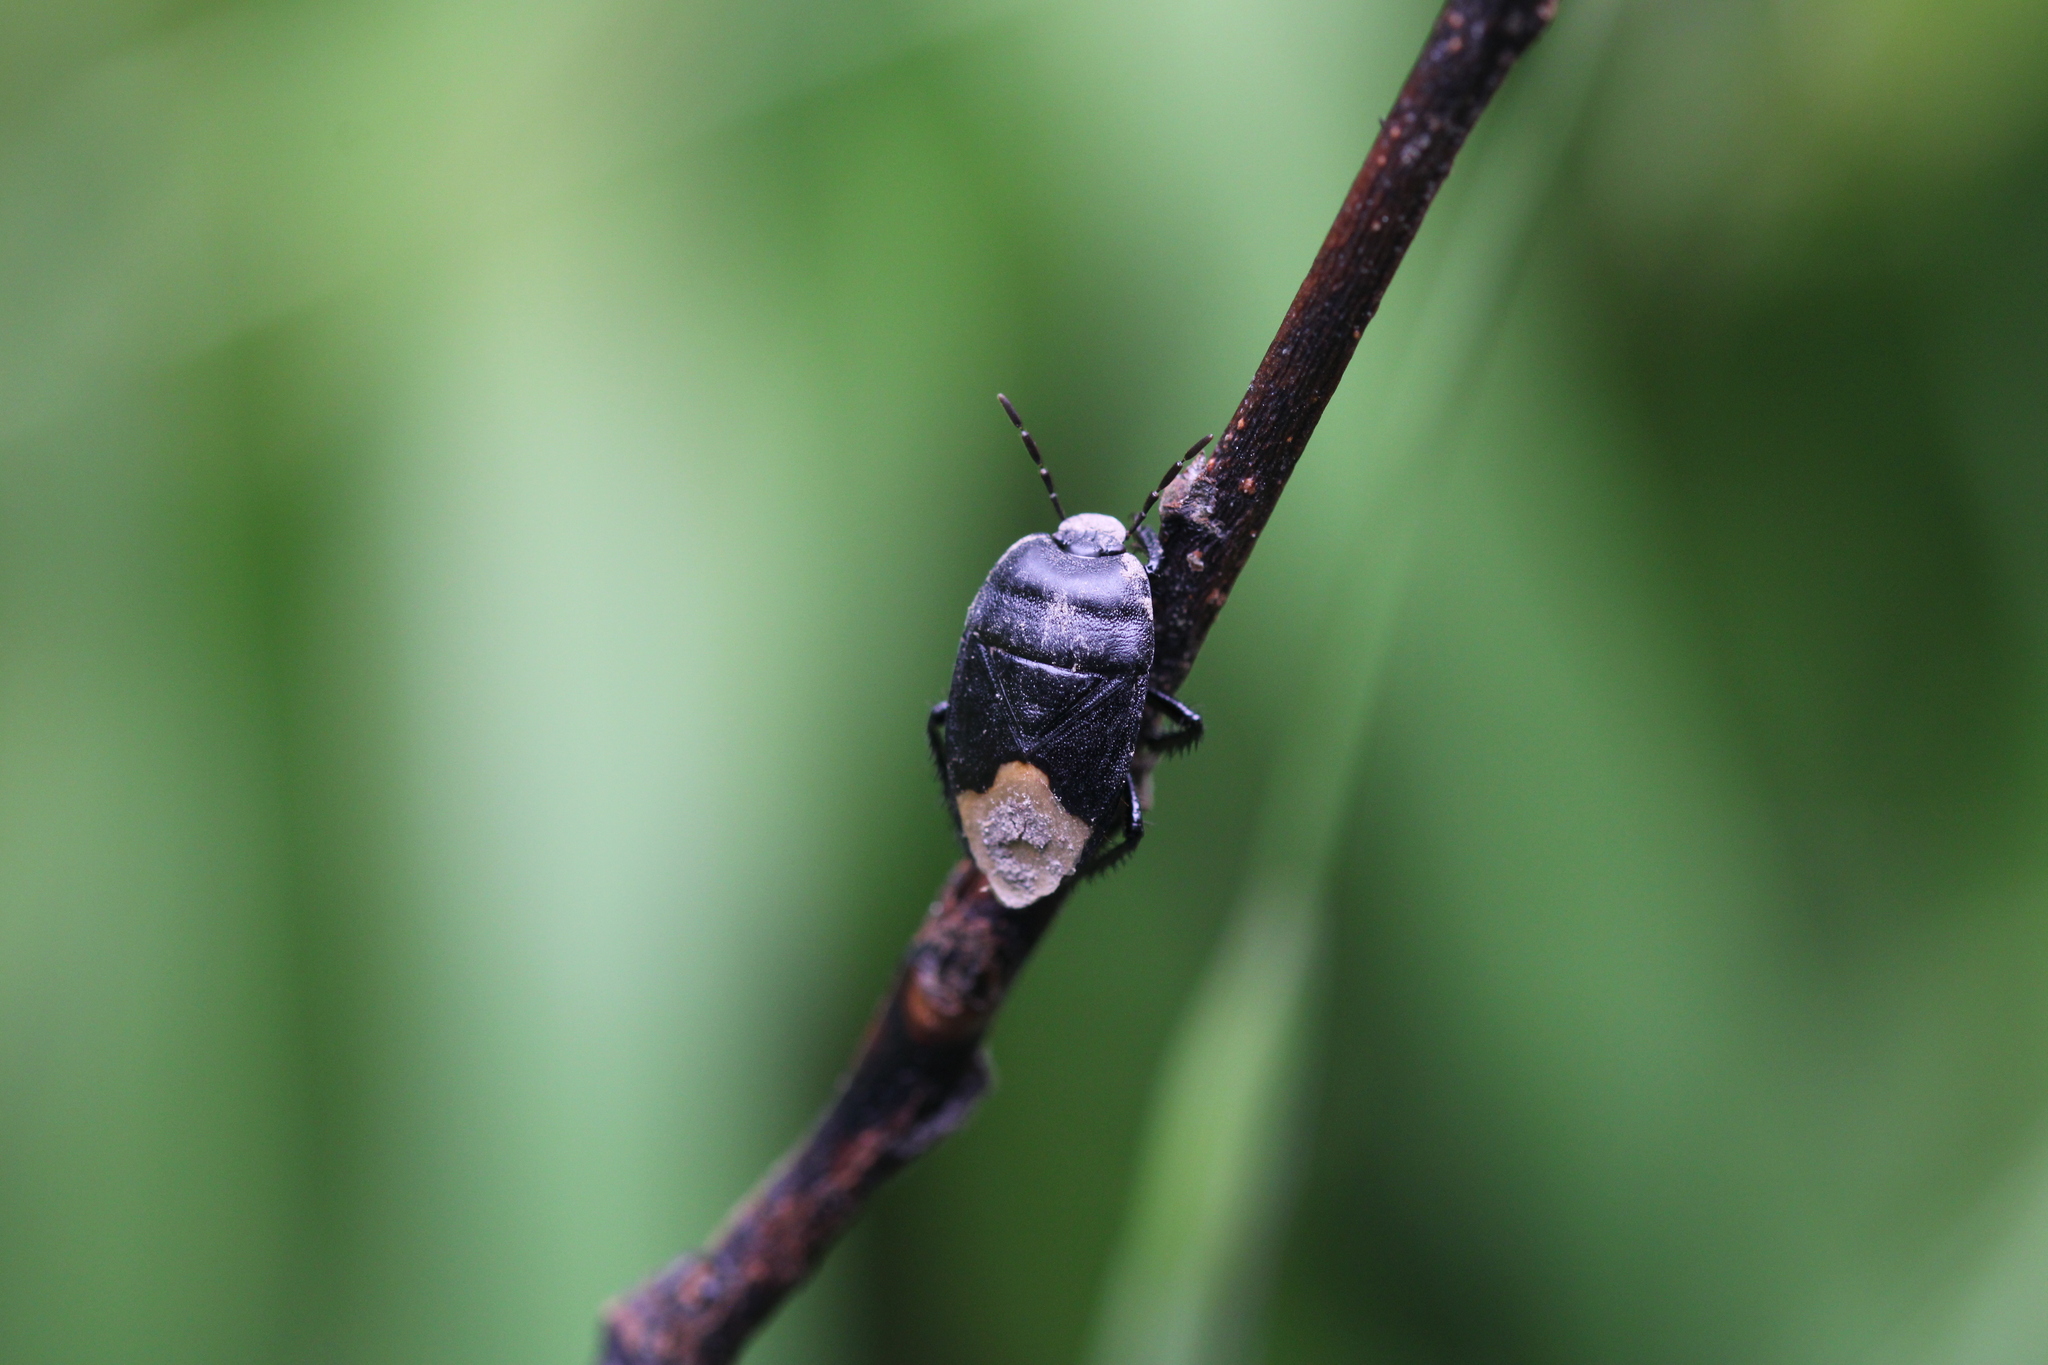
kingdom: Animalia
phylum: Arthropoda
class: Insecta
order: Hemiptera
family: Cydnidae
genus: Cydnus
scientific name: Cydnus aterrimus
